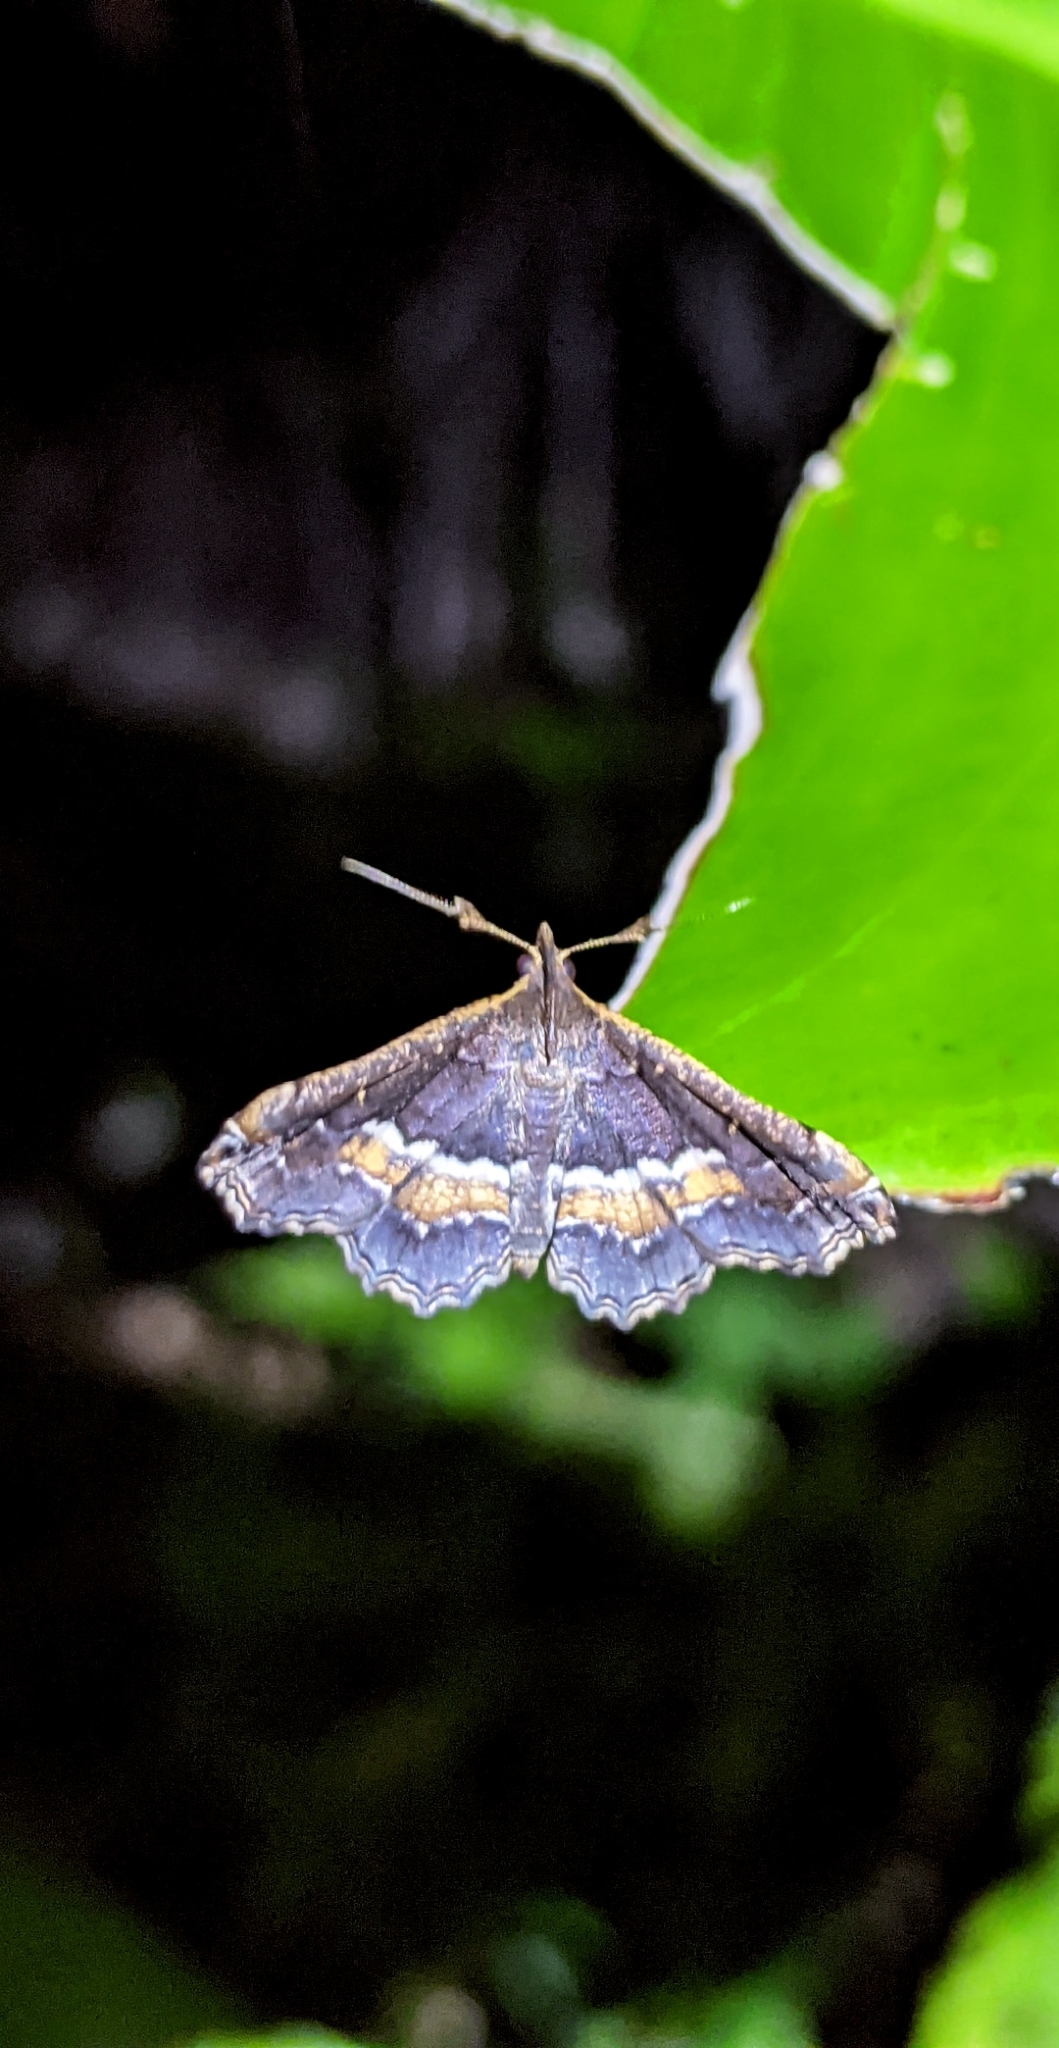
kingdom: Animalia
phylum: Arthropoda
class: Insecta
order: Lepidoptera
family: Erebidae
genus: Salia
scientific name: Salia trinidalis
